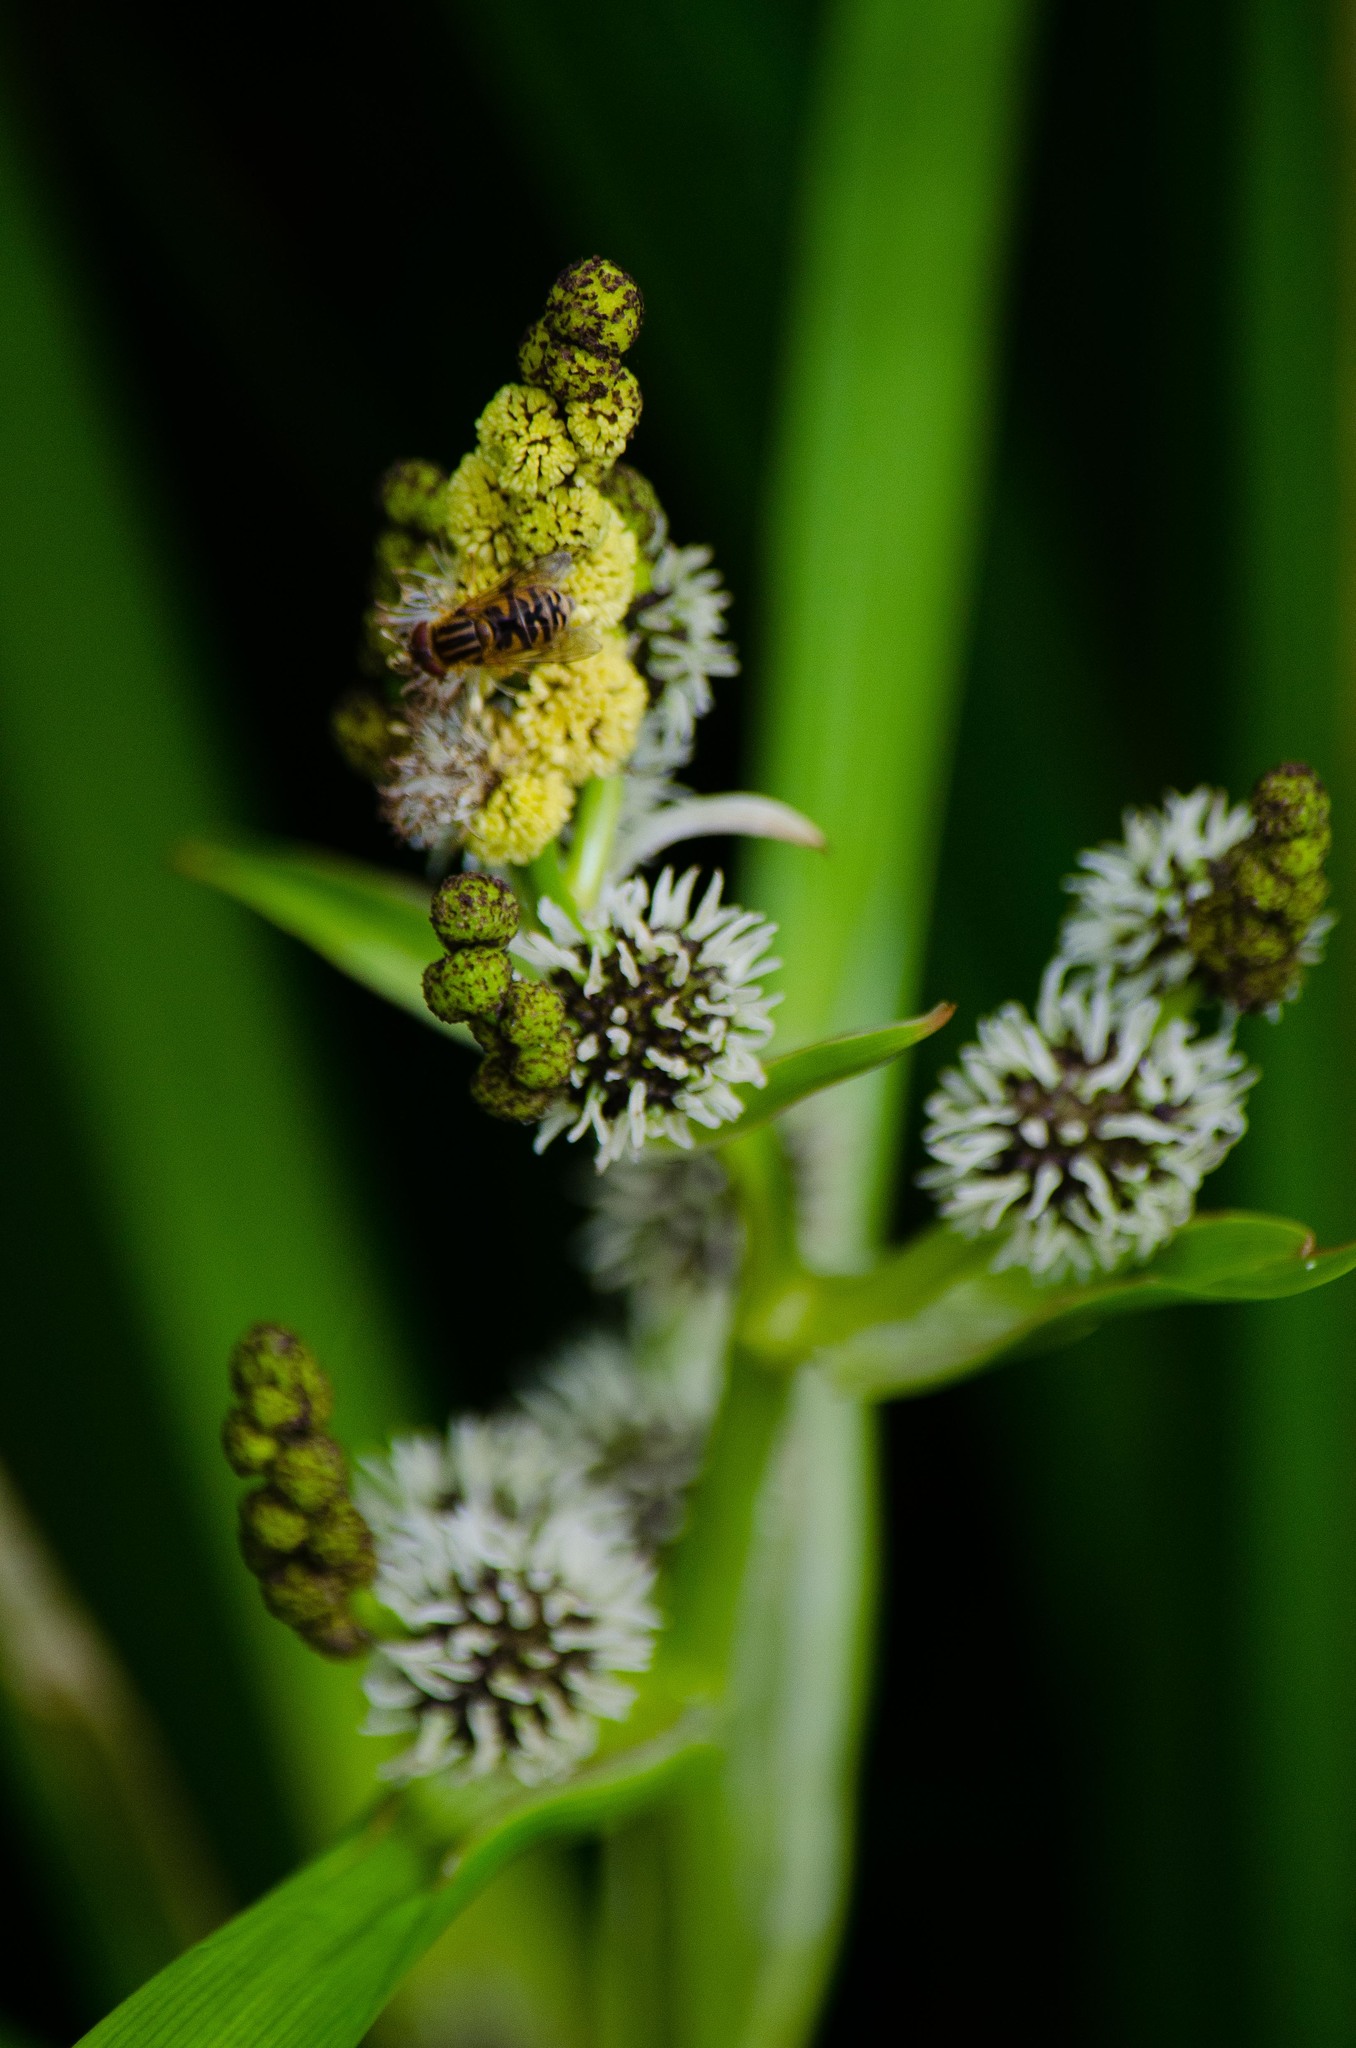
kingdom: Plantae
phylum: Tracheophyta
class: Liliopsida
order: Poales
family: Typhaceae
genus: Sparganium
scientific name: Sparganium erectum
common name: Branched bur-reed
